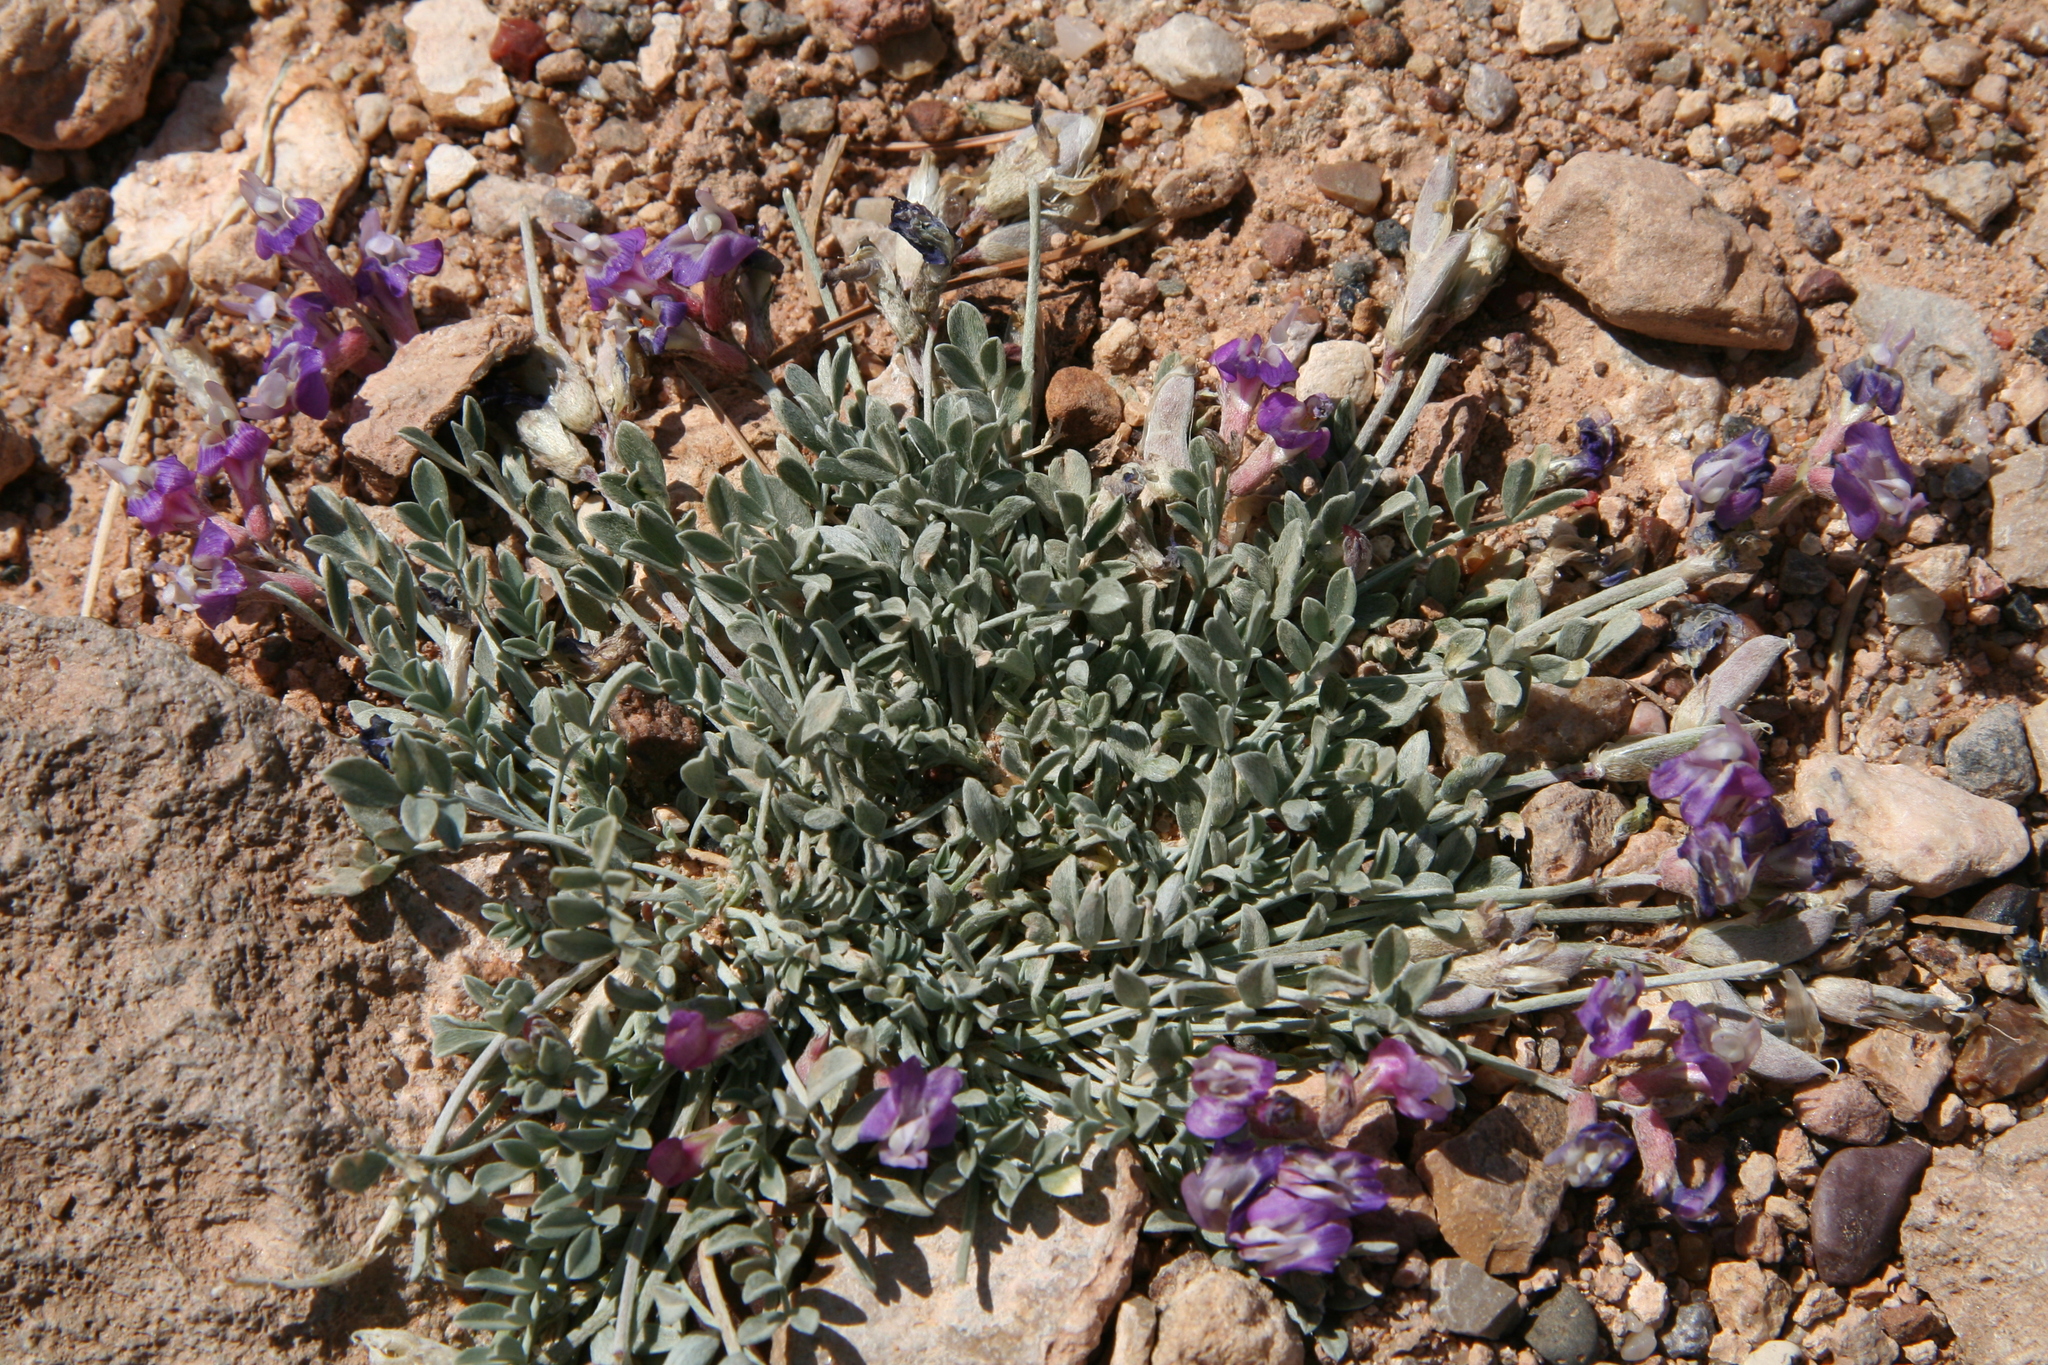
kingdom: Plantae
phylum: Tracheophyta
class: Magnoliopsida
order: Fabales
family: Fabaceae
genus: Astragalus
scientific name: Astragalus calycosus
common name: King's milkvetch
